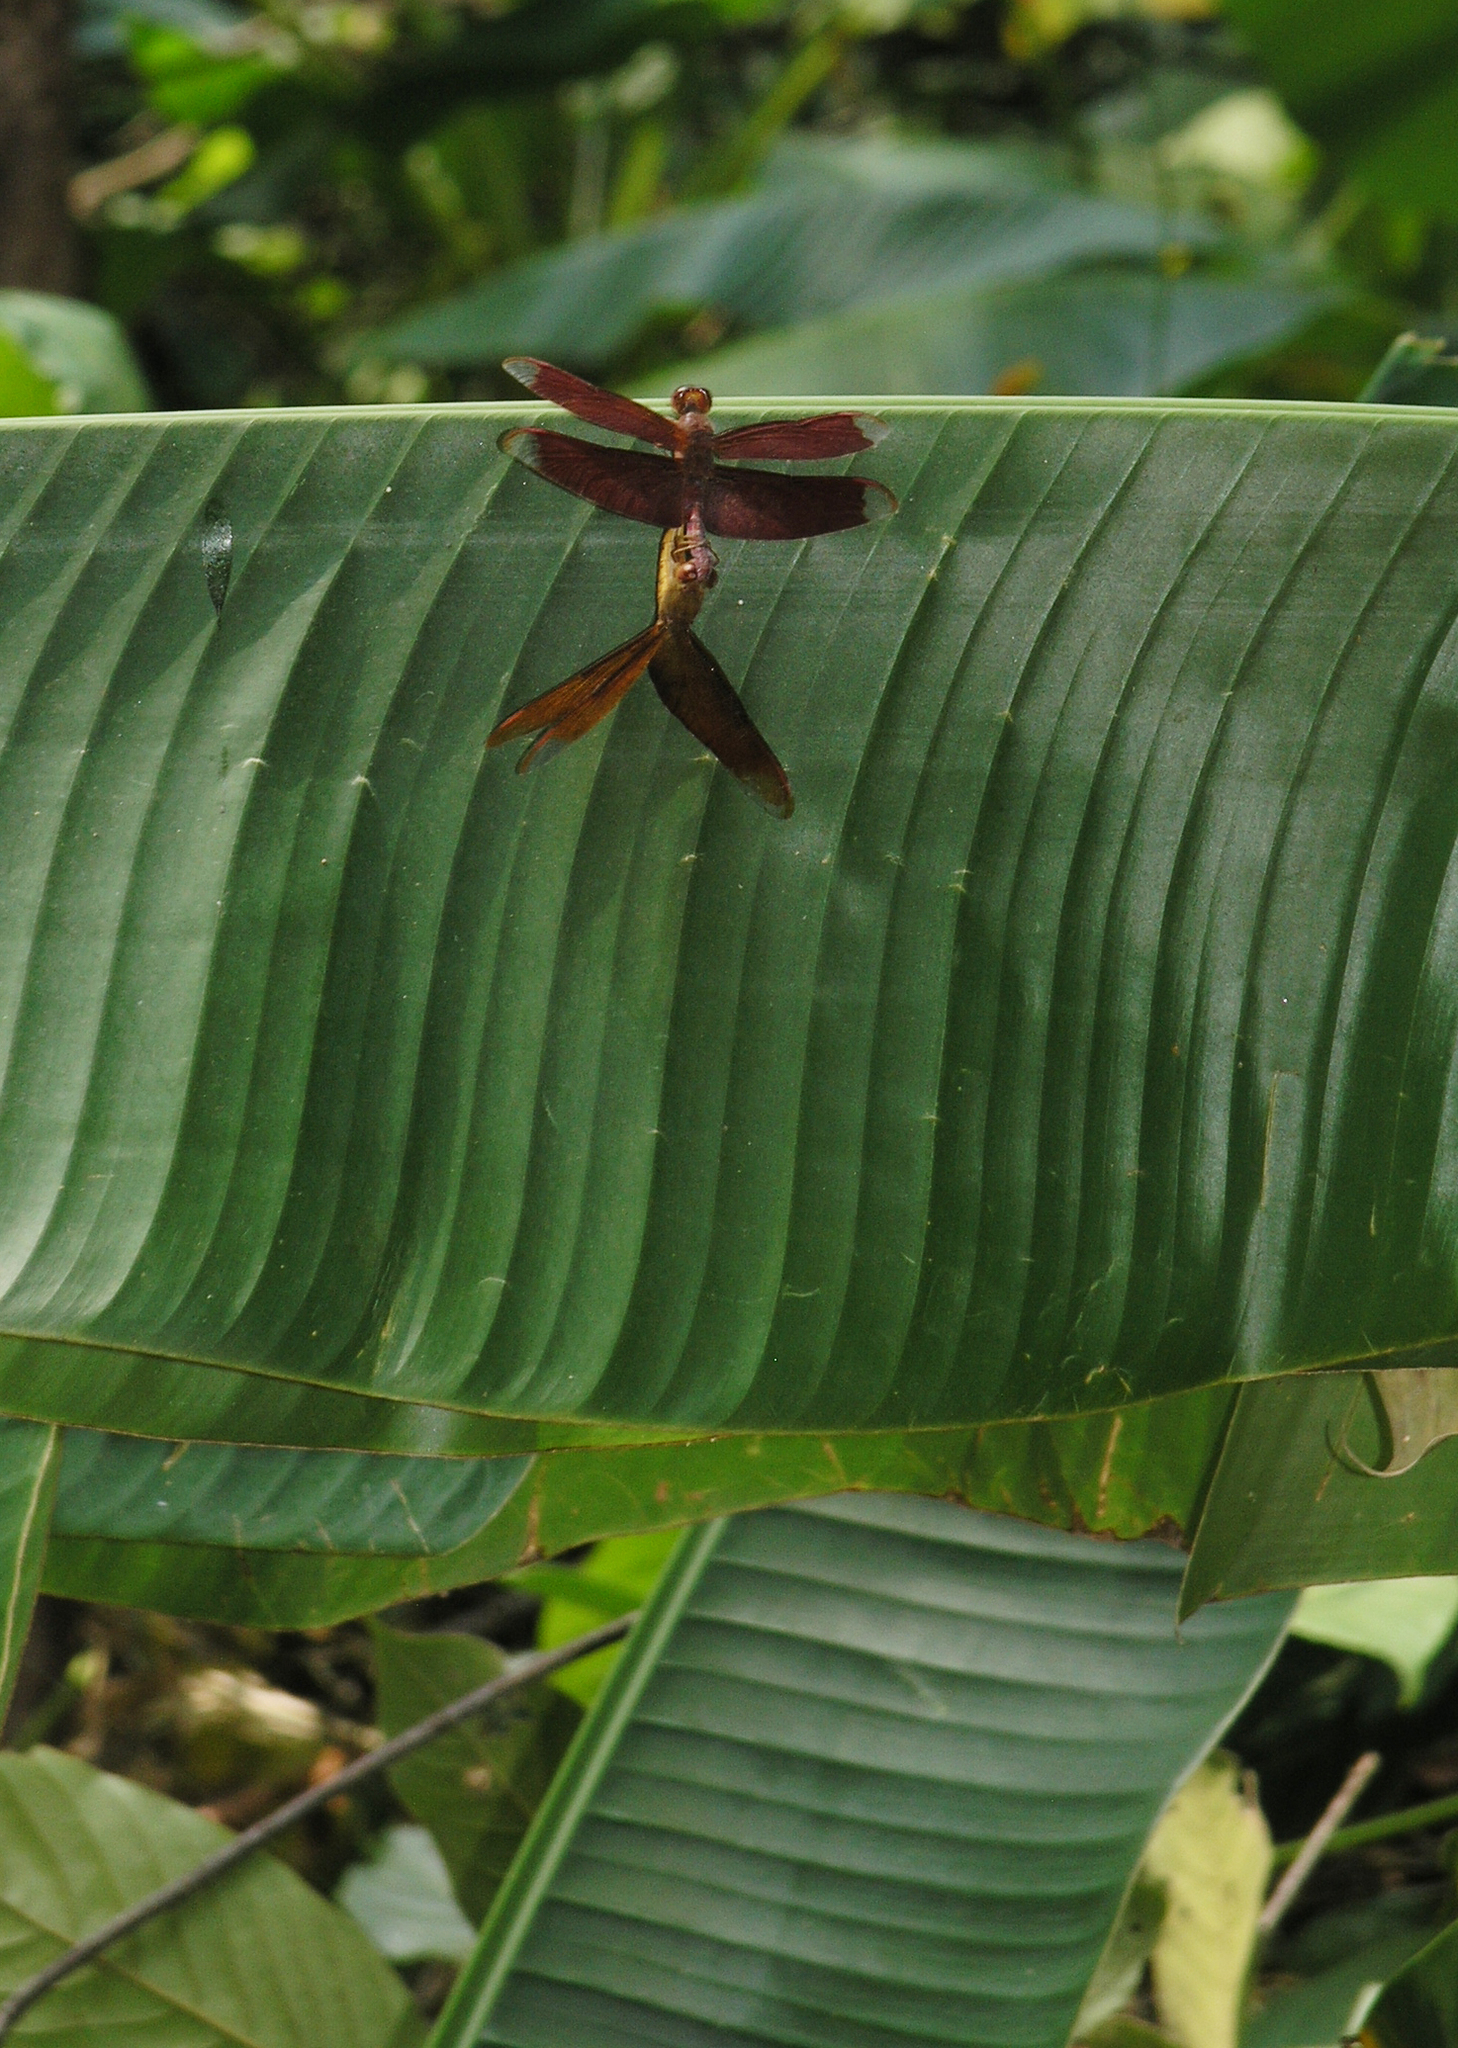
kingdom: Animalia
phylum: Arthropoda
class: Insecta
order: Odonata
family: Libellulidae
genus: Neurothemis
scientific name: Neurothemis fulvia
